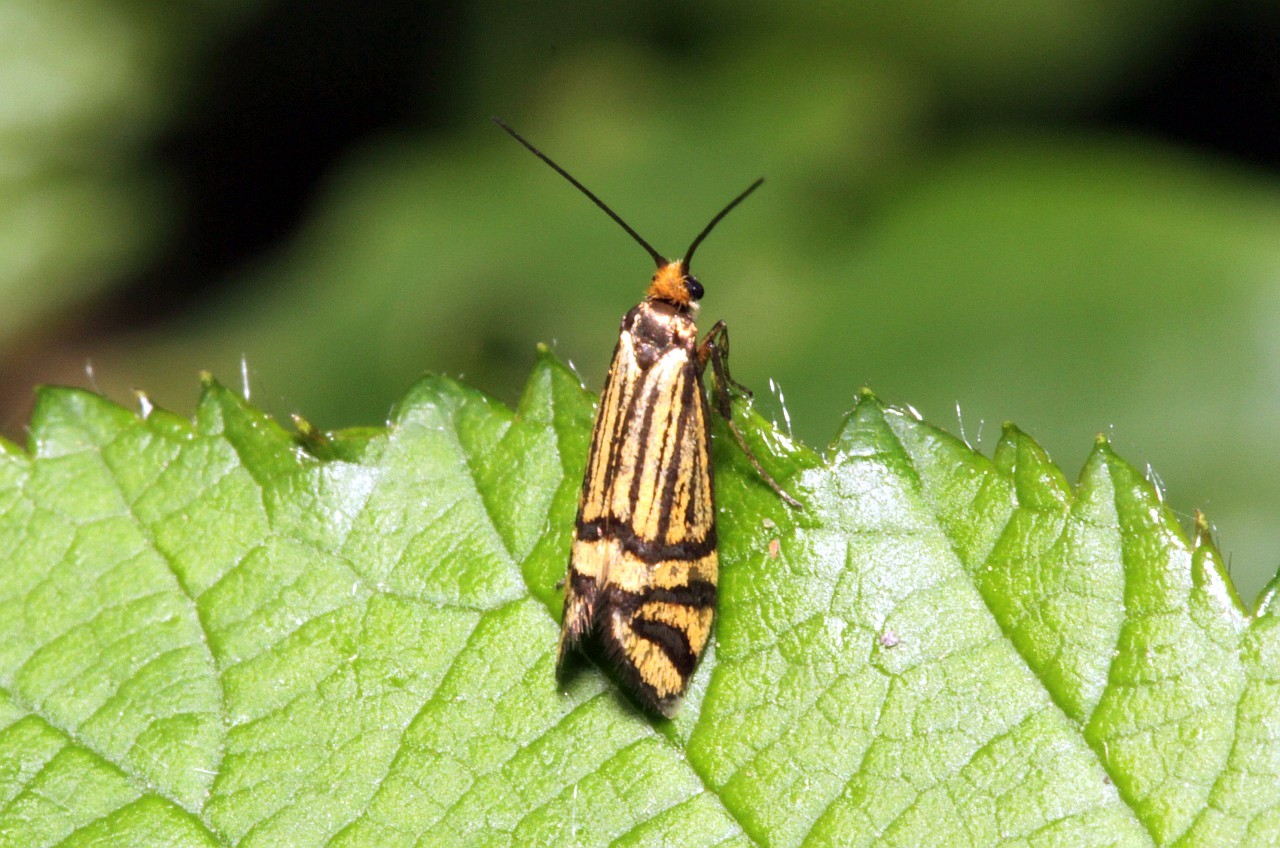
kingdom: Animalia
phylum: Arthropoda
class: Insecta
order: Lepidoptera
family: Adelidae
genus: Nemophora
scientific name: Nemophora ochsenheimerella
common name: Ochsenheimer’s long-horn
